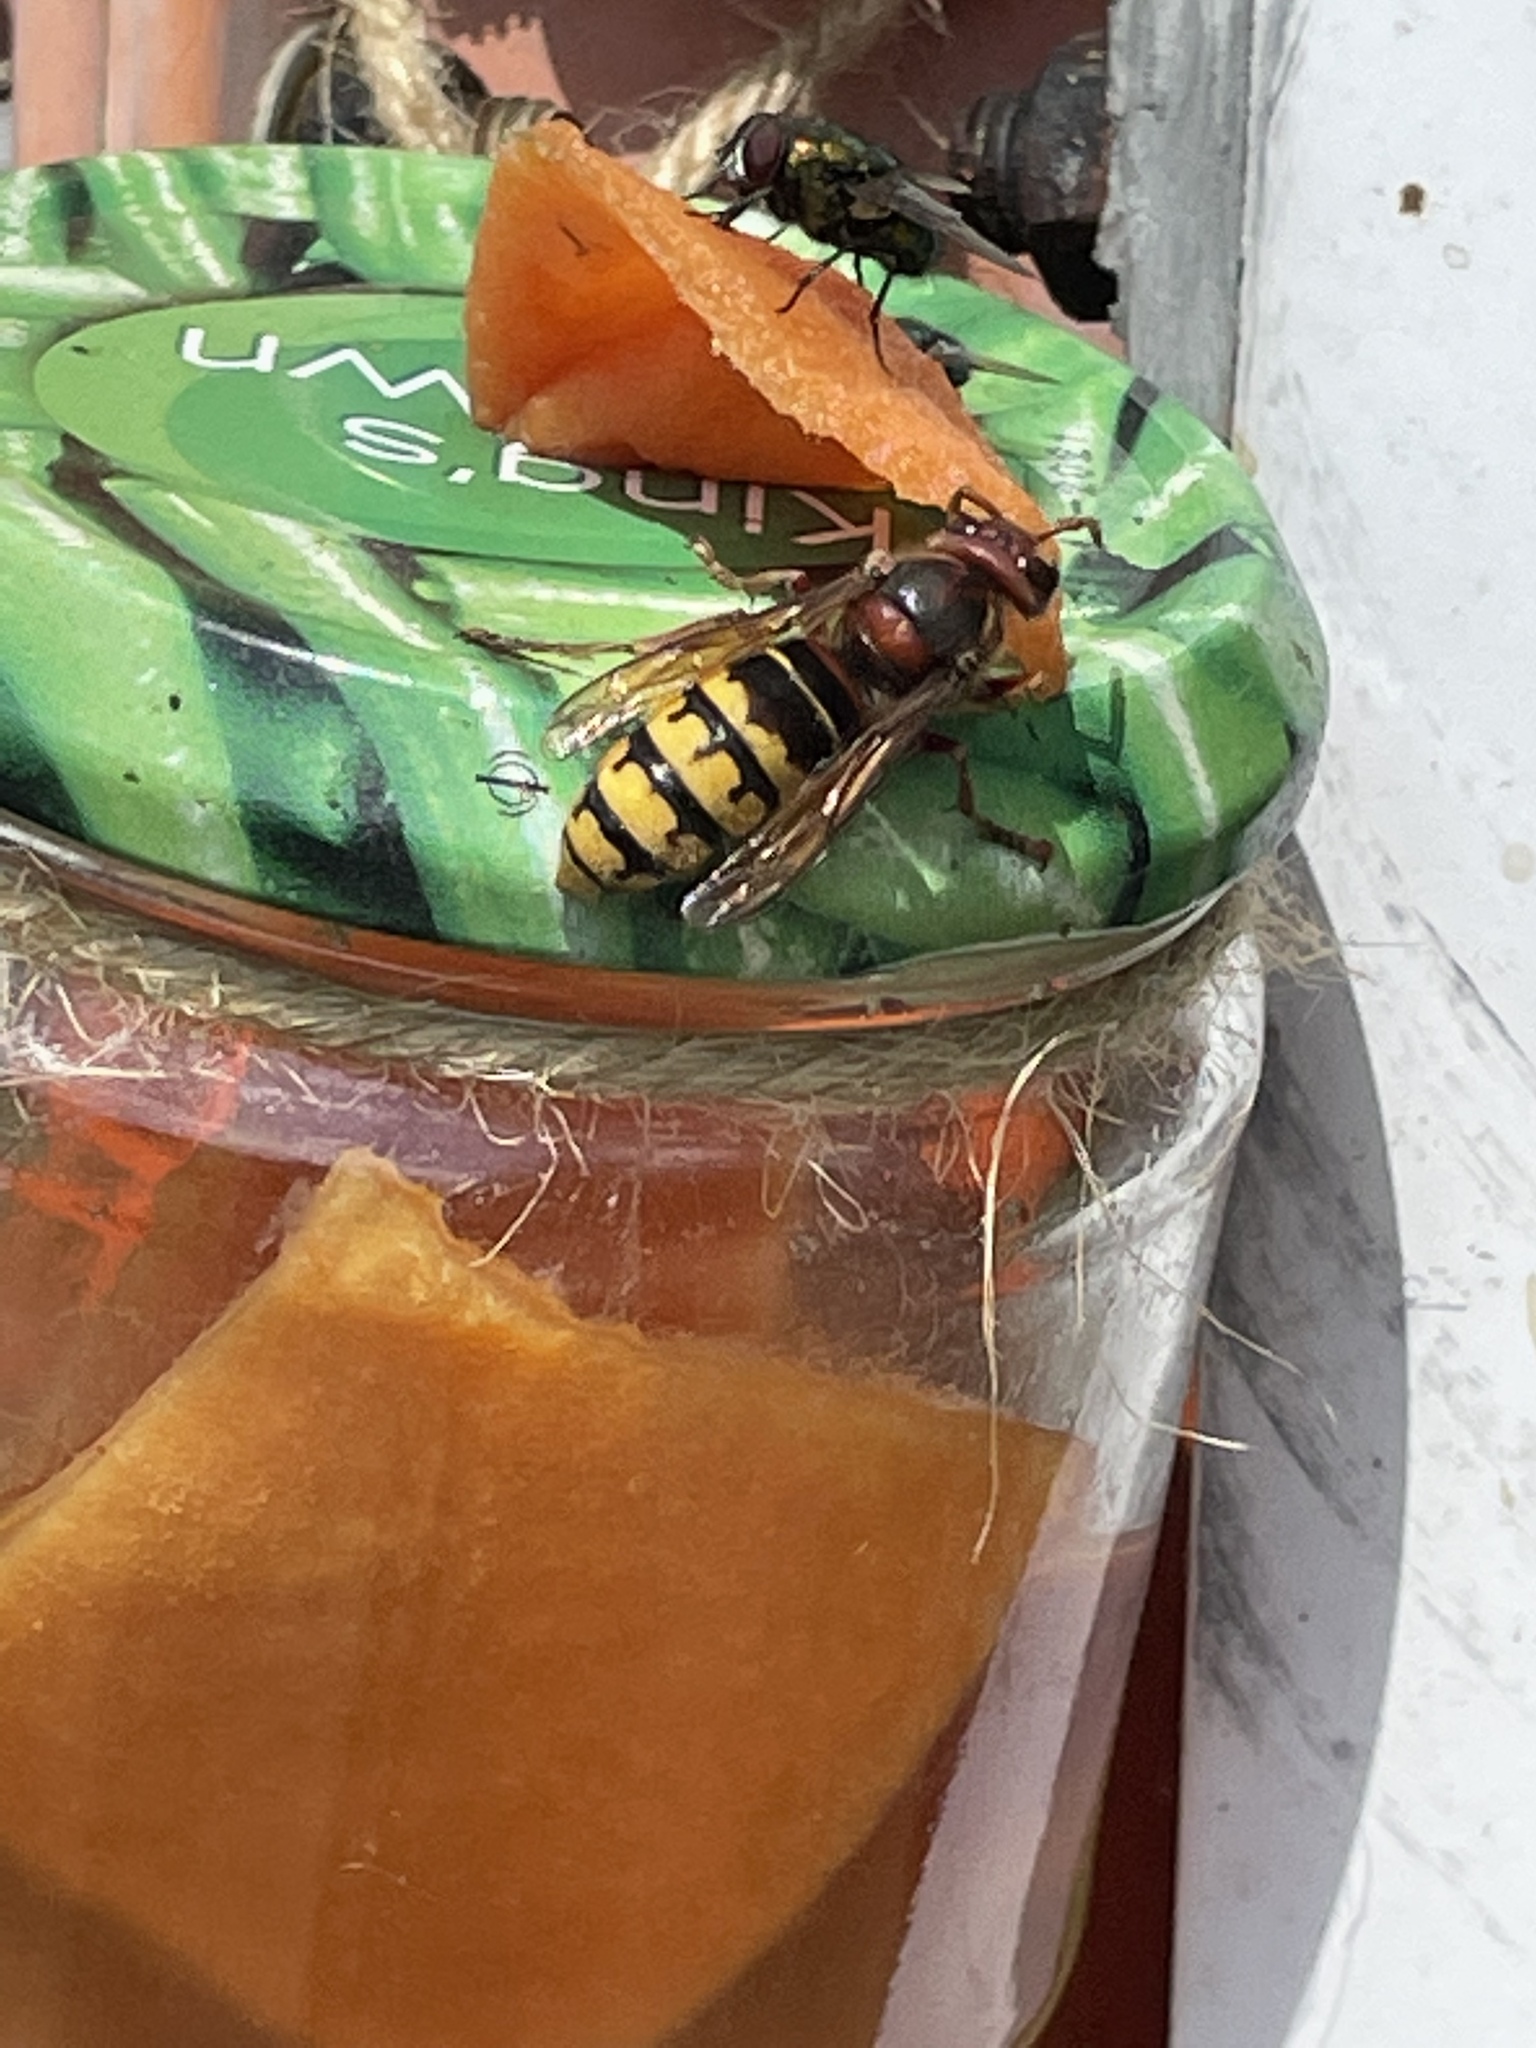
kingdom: Animalia
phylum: Arthropoda
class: Insecta
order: Hymenoptera
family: Vespidae
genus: Vespa
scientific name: Vespa crabro
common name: Hornet
